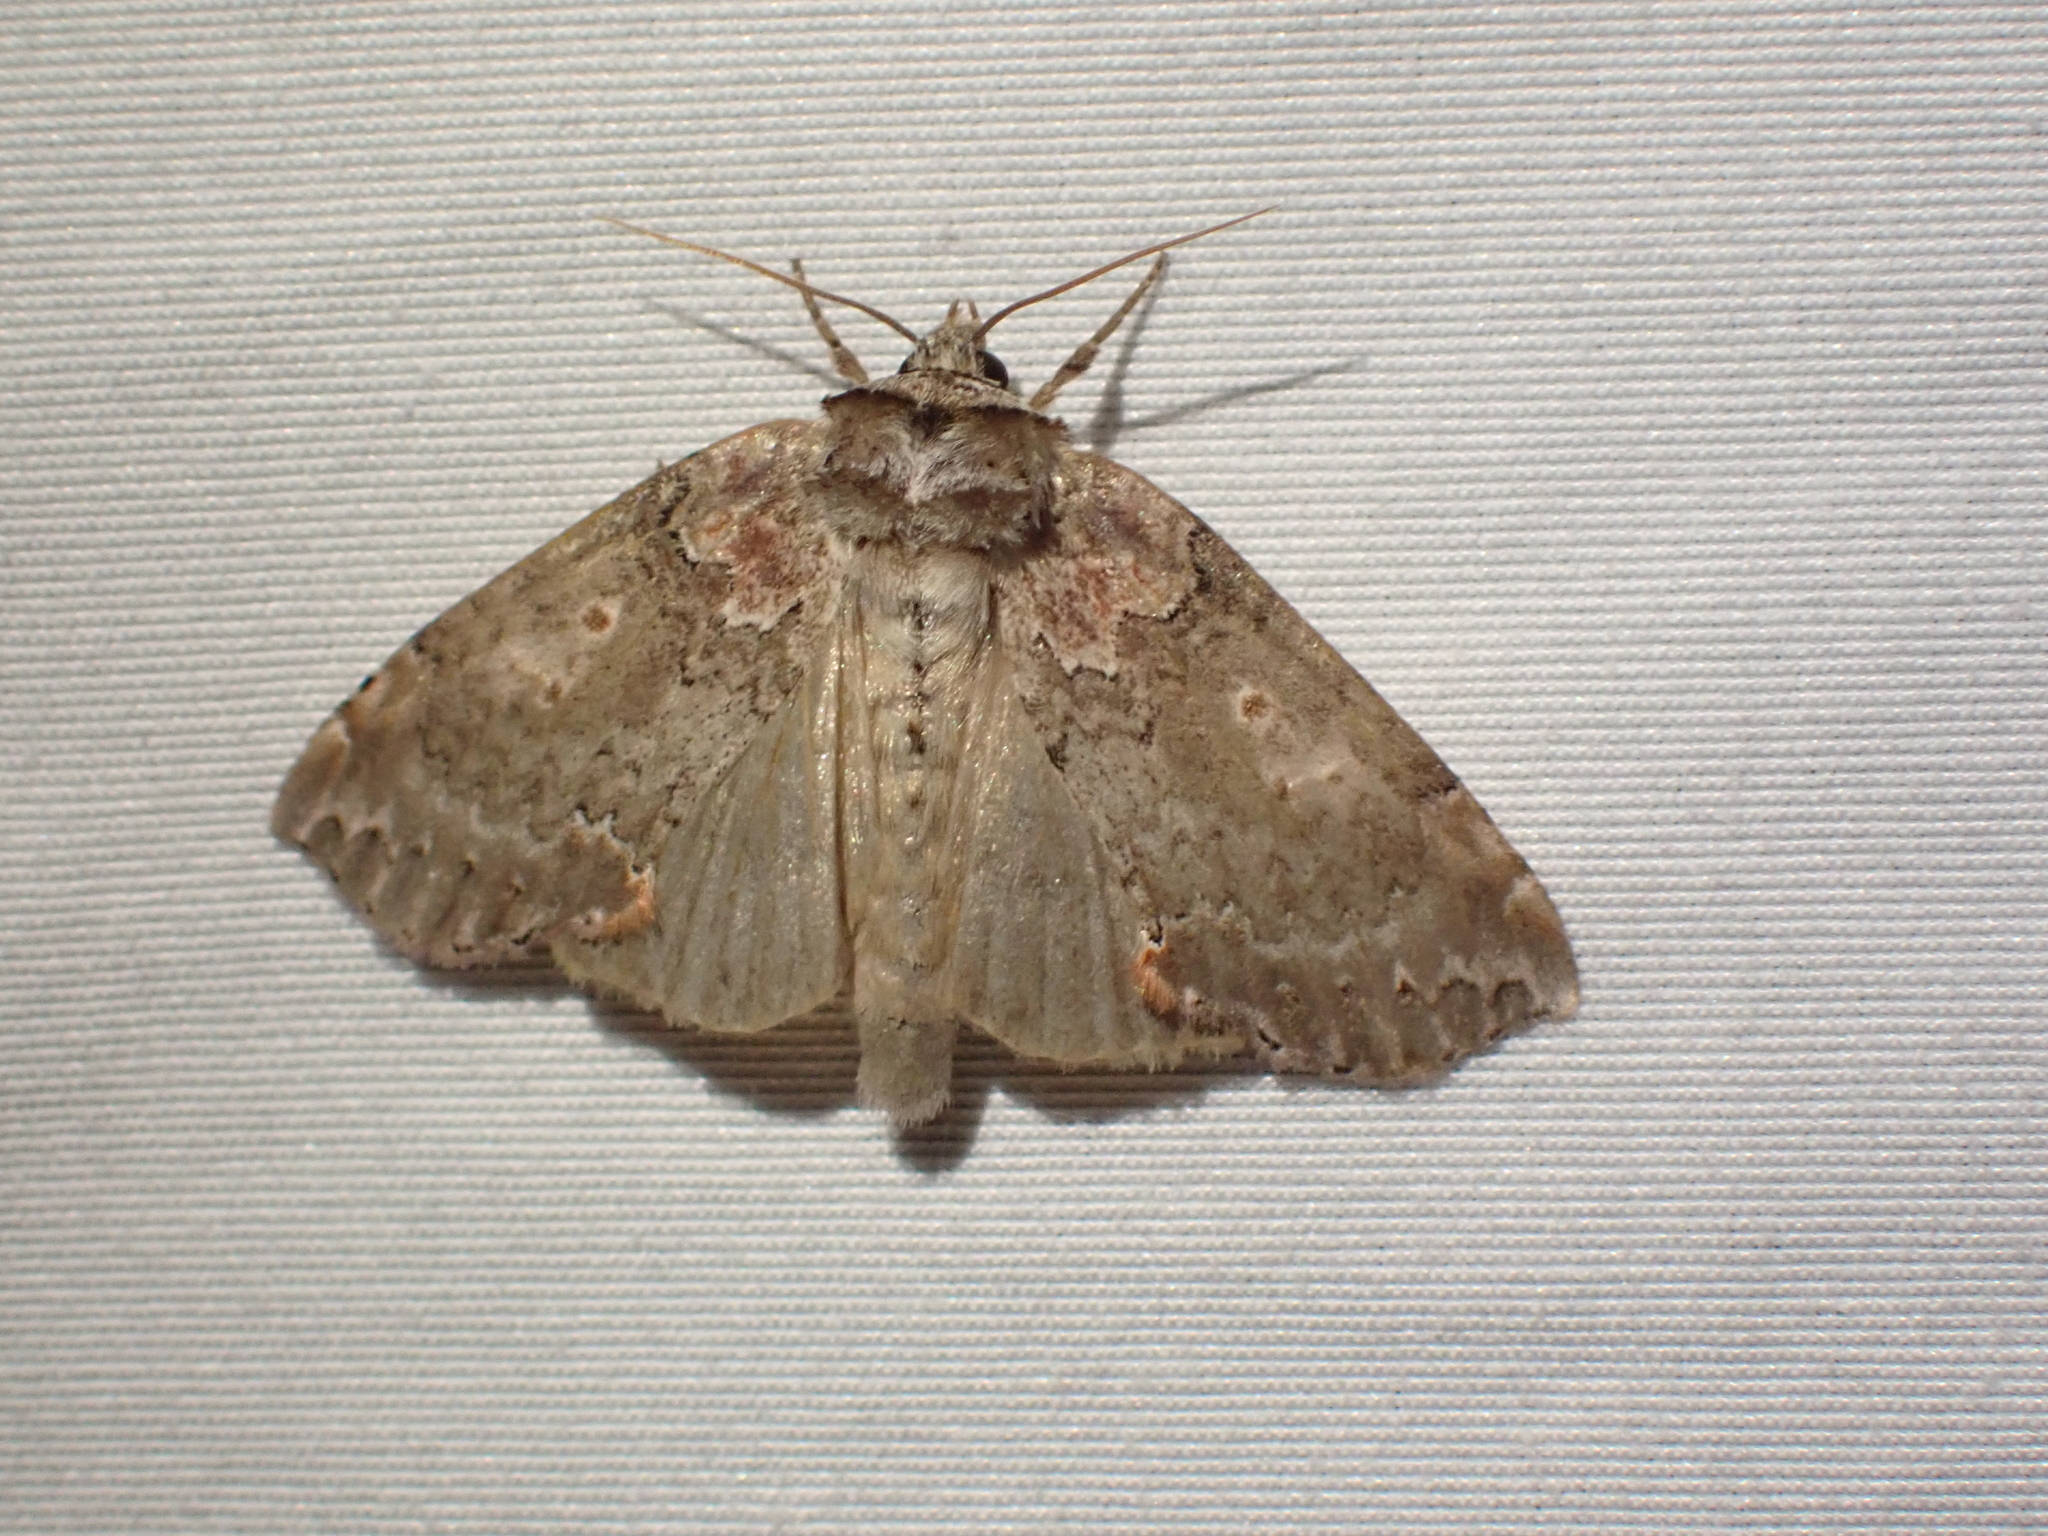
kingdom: Animalia
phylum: Arthropoda
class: Insecta
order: Lepidoptera
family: Drepanidae
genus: Pseudothyatira
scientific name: Pseudothyatira cymatophoroides
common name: Tufted thyatirid moth
